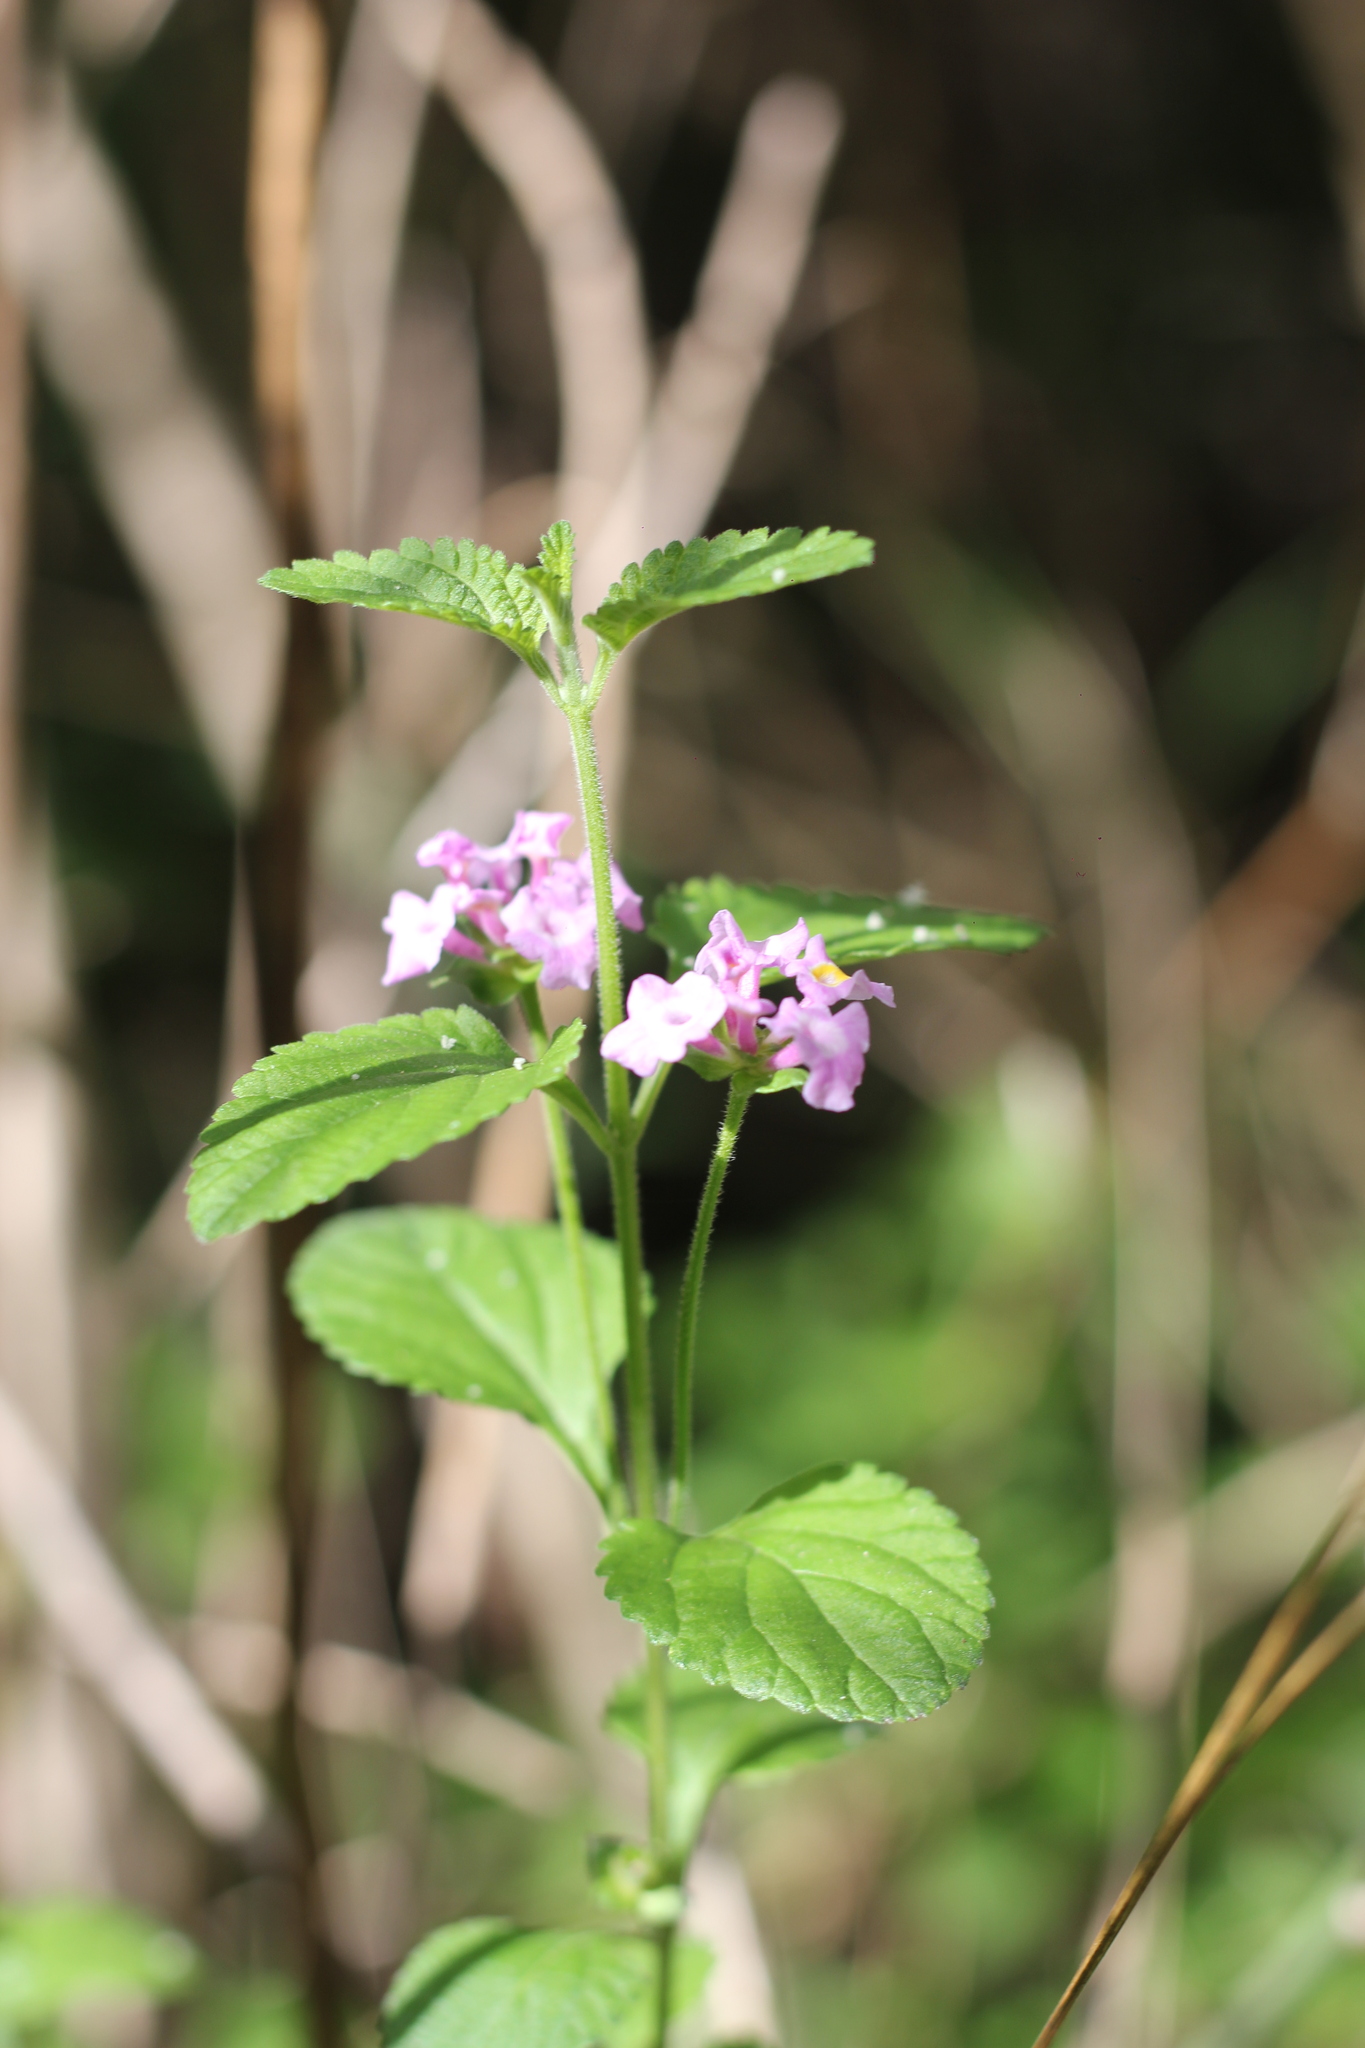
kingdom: Plantae
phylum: Tracheophyta
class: Magnoliopsida
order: Lamiales
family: Verbenaceae
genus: Lantana
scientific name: Lantana montevidensis
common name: Trailing shrubverbena
